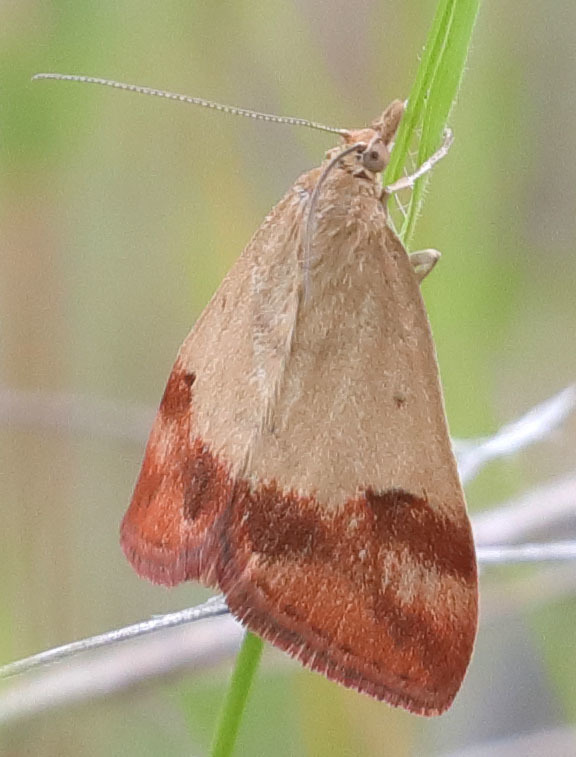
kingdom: Animalia
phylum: Arthropoda
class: Insecta
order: Lepidoptera
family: Crambidae
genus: Pyrausta
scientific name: Pyrausta semirubralis
